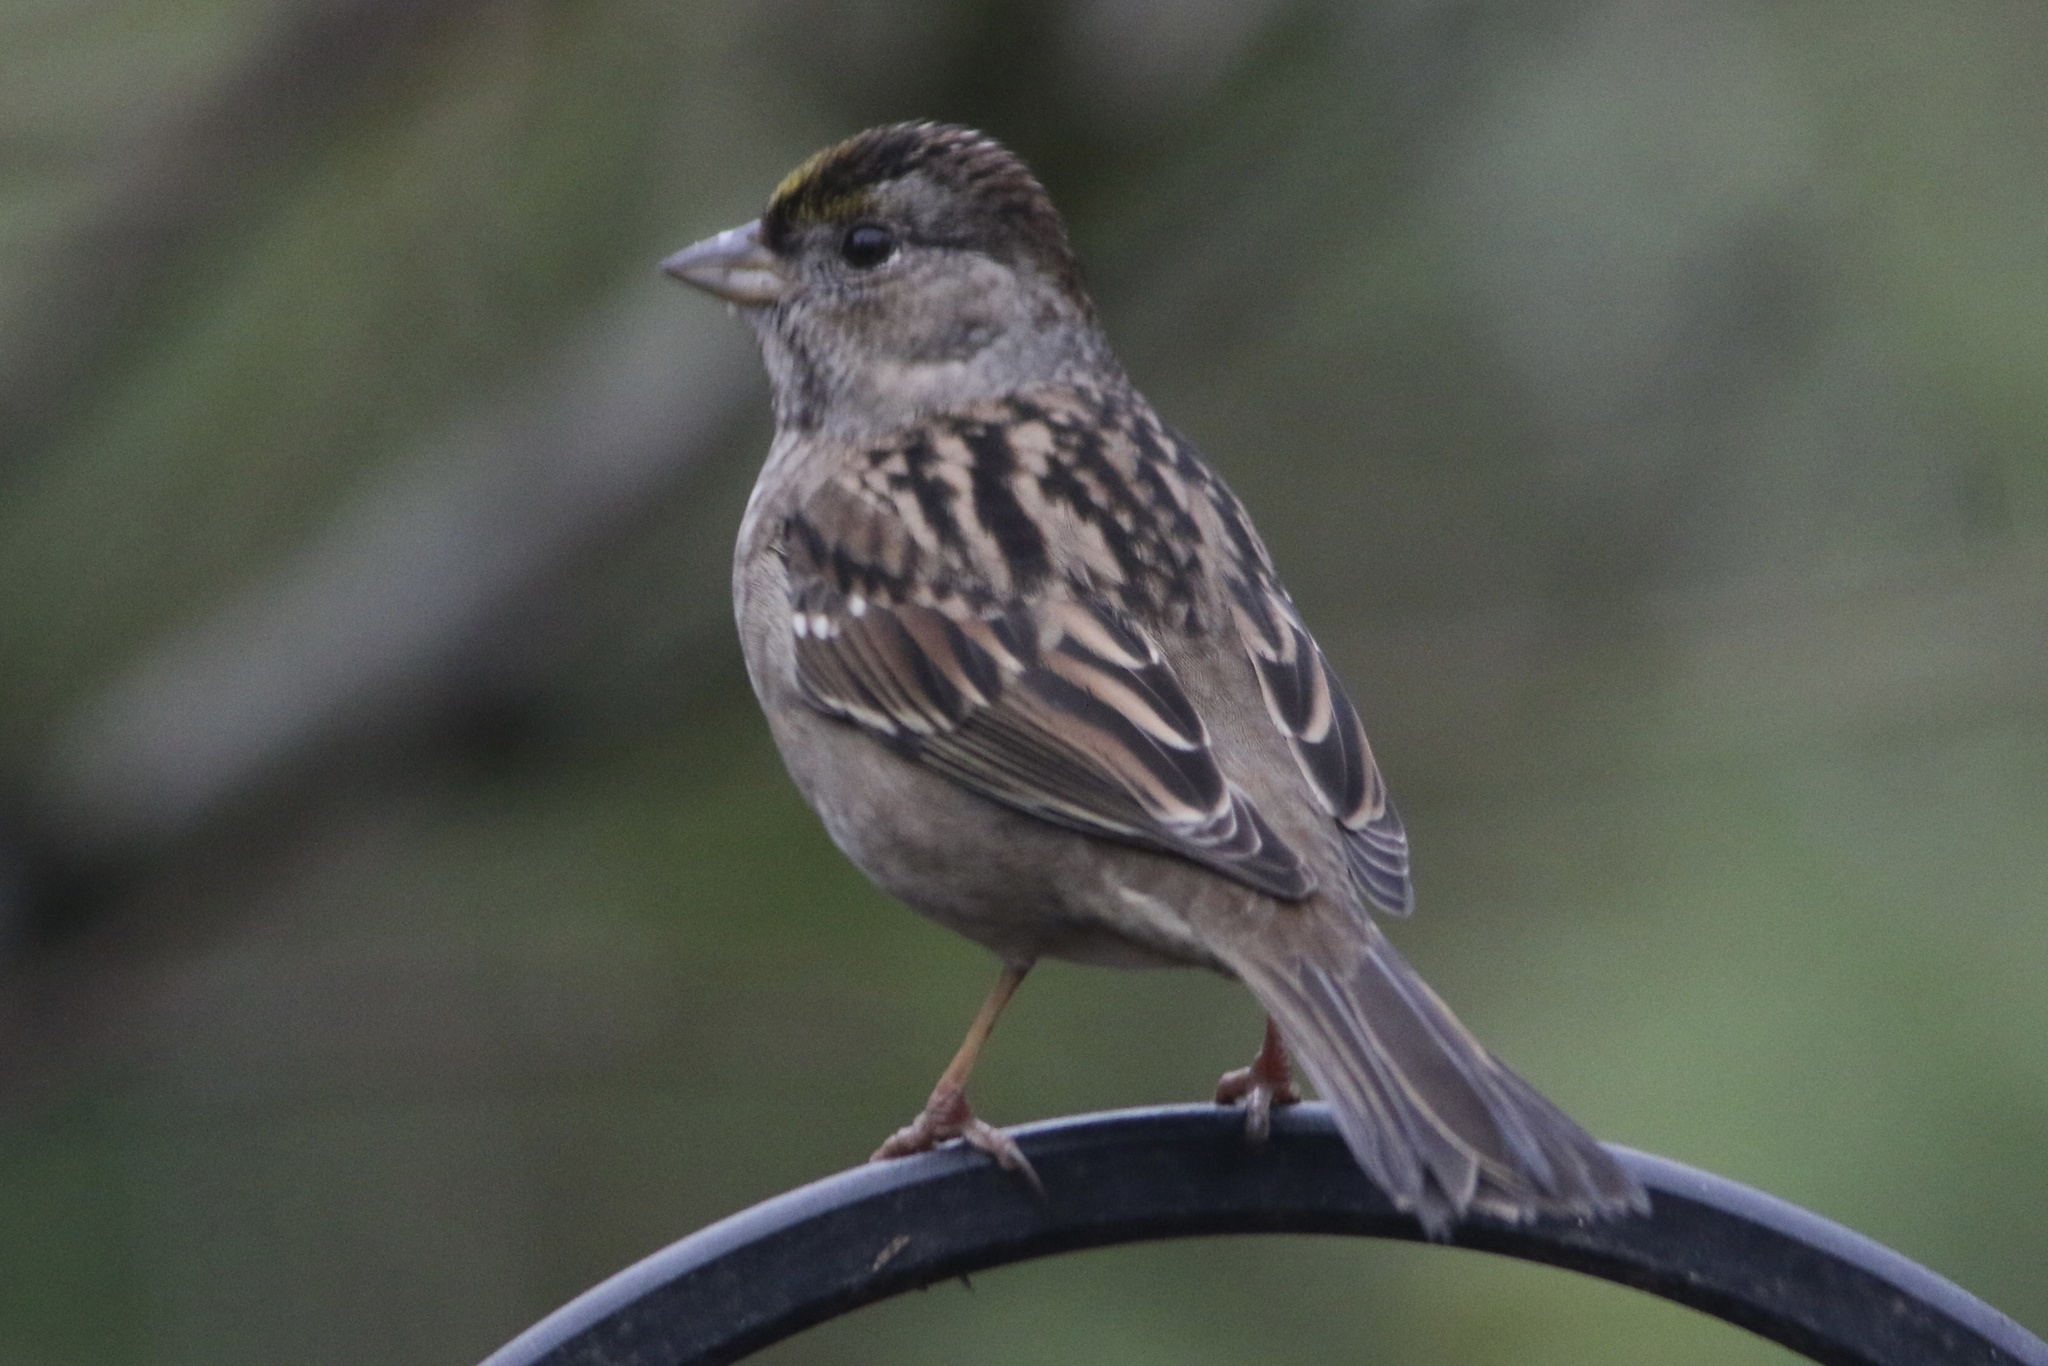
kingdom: Animalia
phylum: Chordata
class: Aves
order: Passeriformes
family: Passerellidae
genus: Zonotrichia
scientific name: Zonotrichia atricapilla
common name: Golden-crowned sparrow
